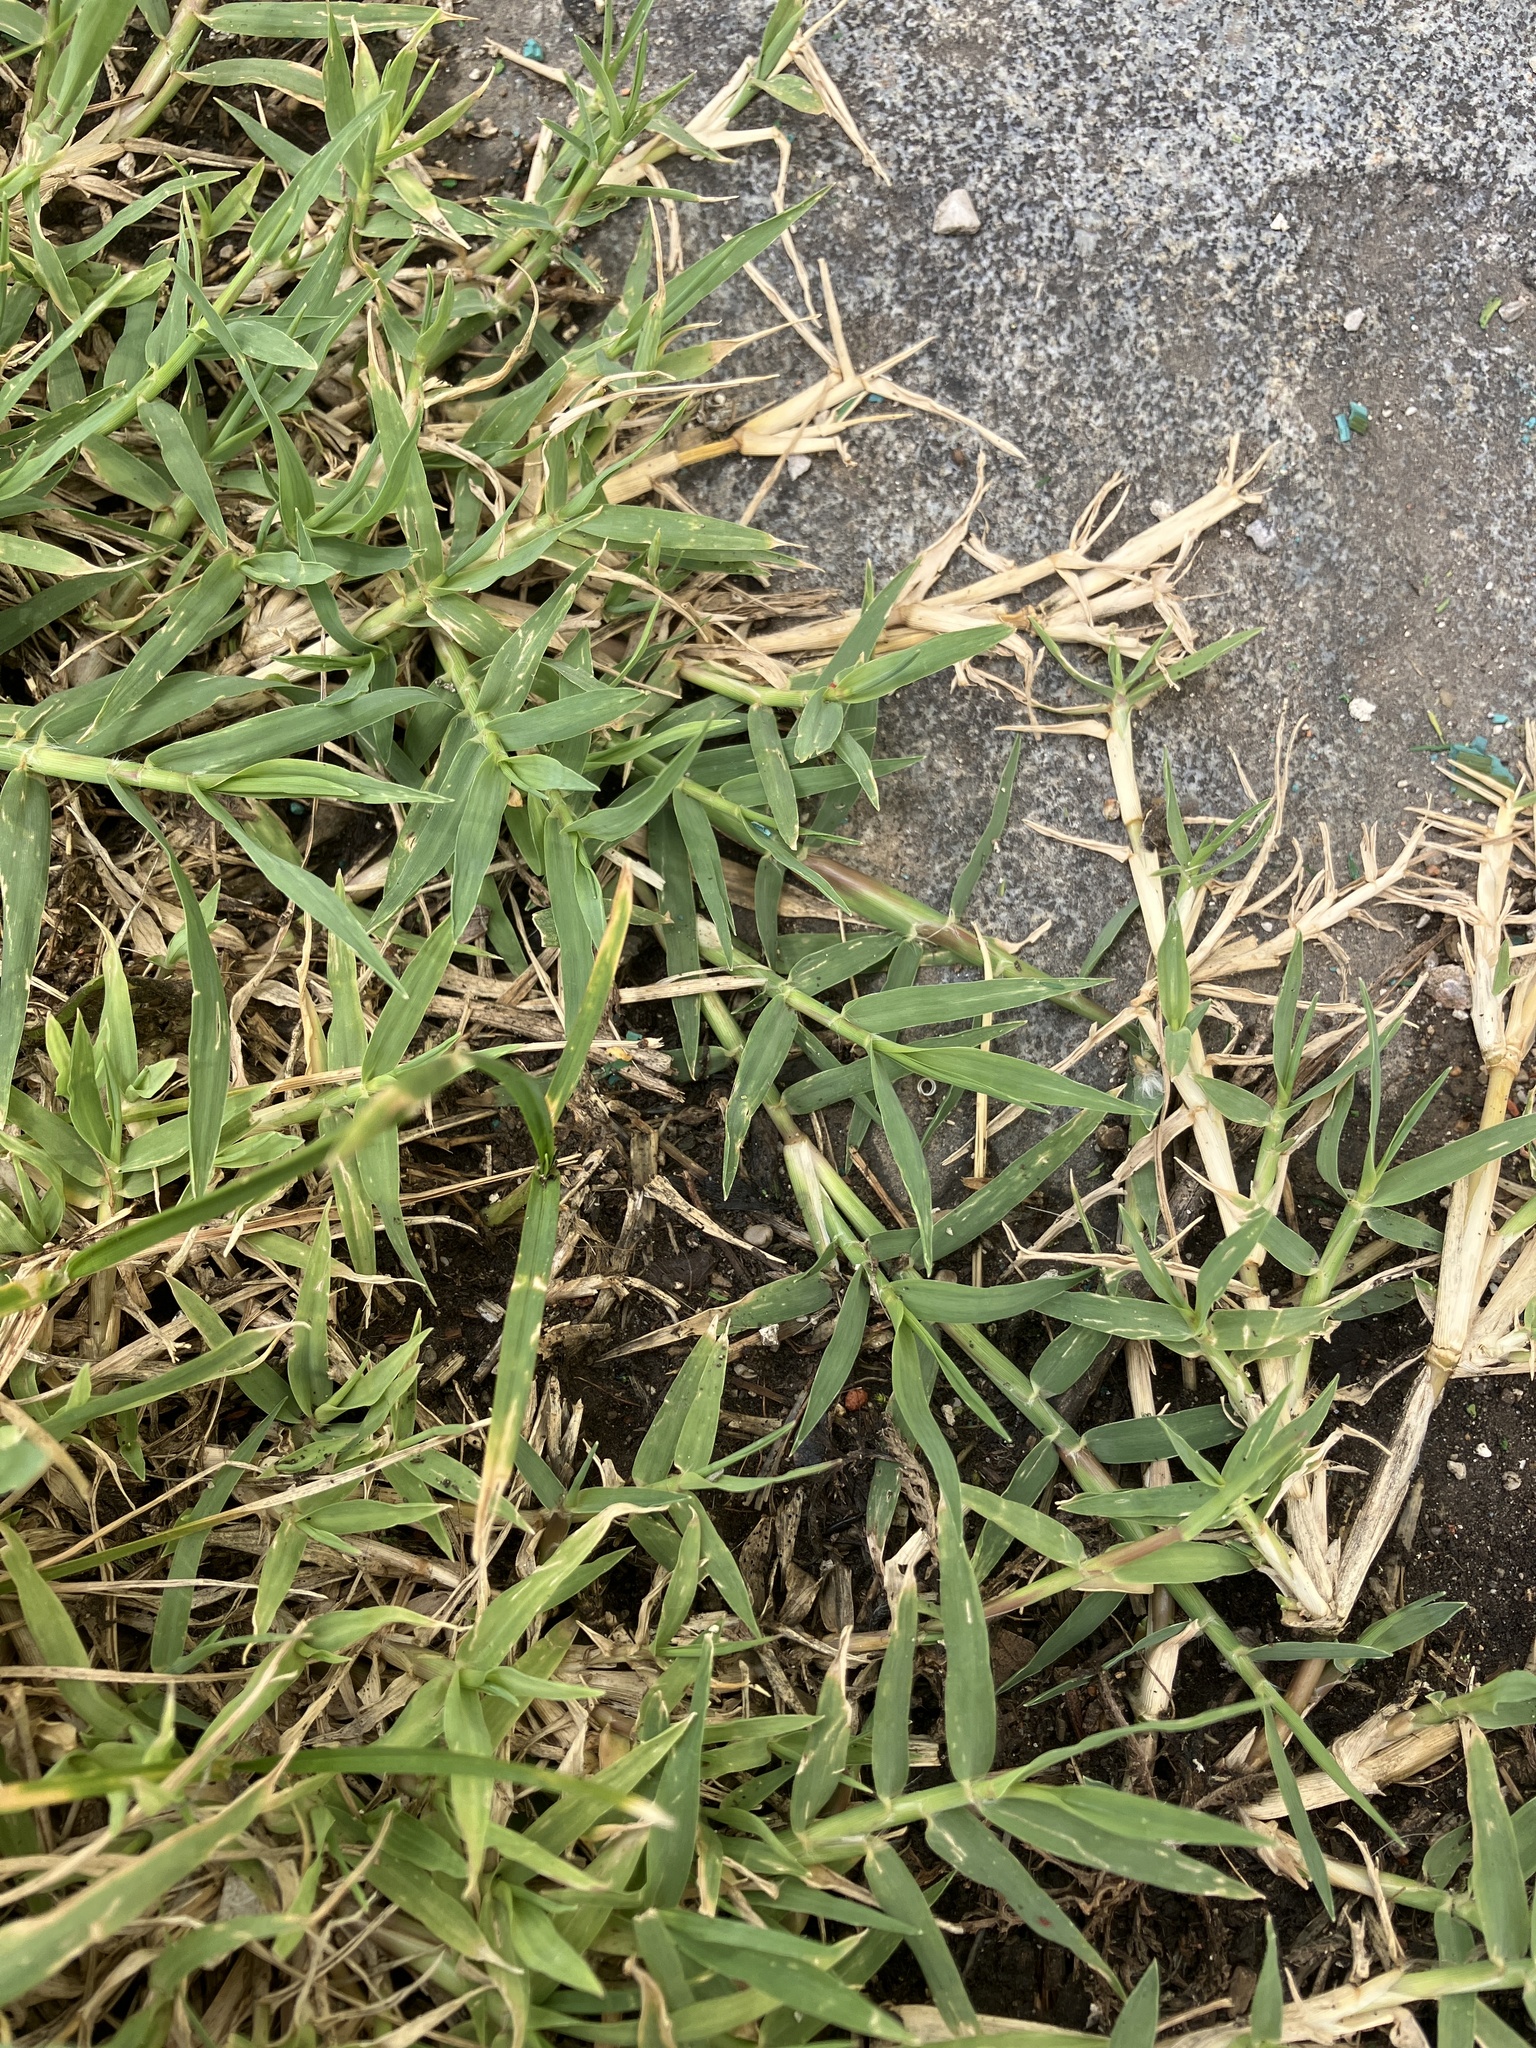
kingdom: Plantae
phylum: Tracheophyta
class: Liliopsida
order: Poales
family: Poaceae
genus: Cynodon
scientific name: Cynodon dactylon
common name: Bermuda grass
